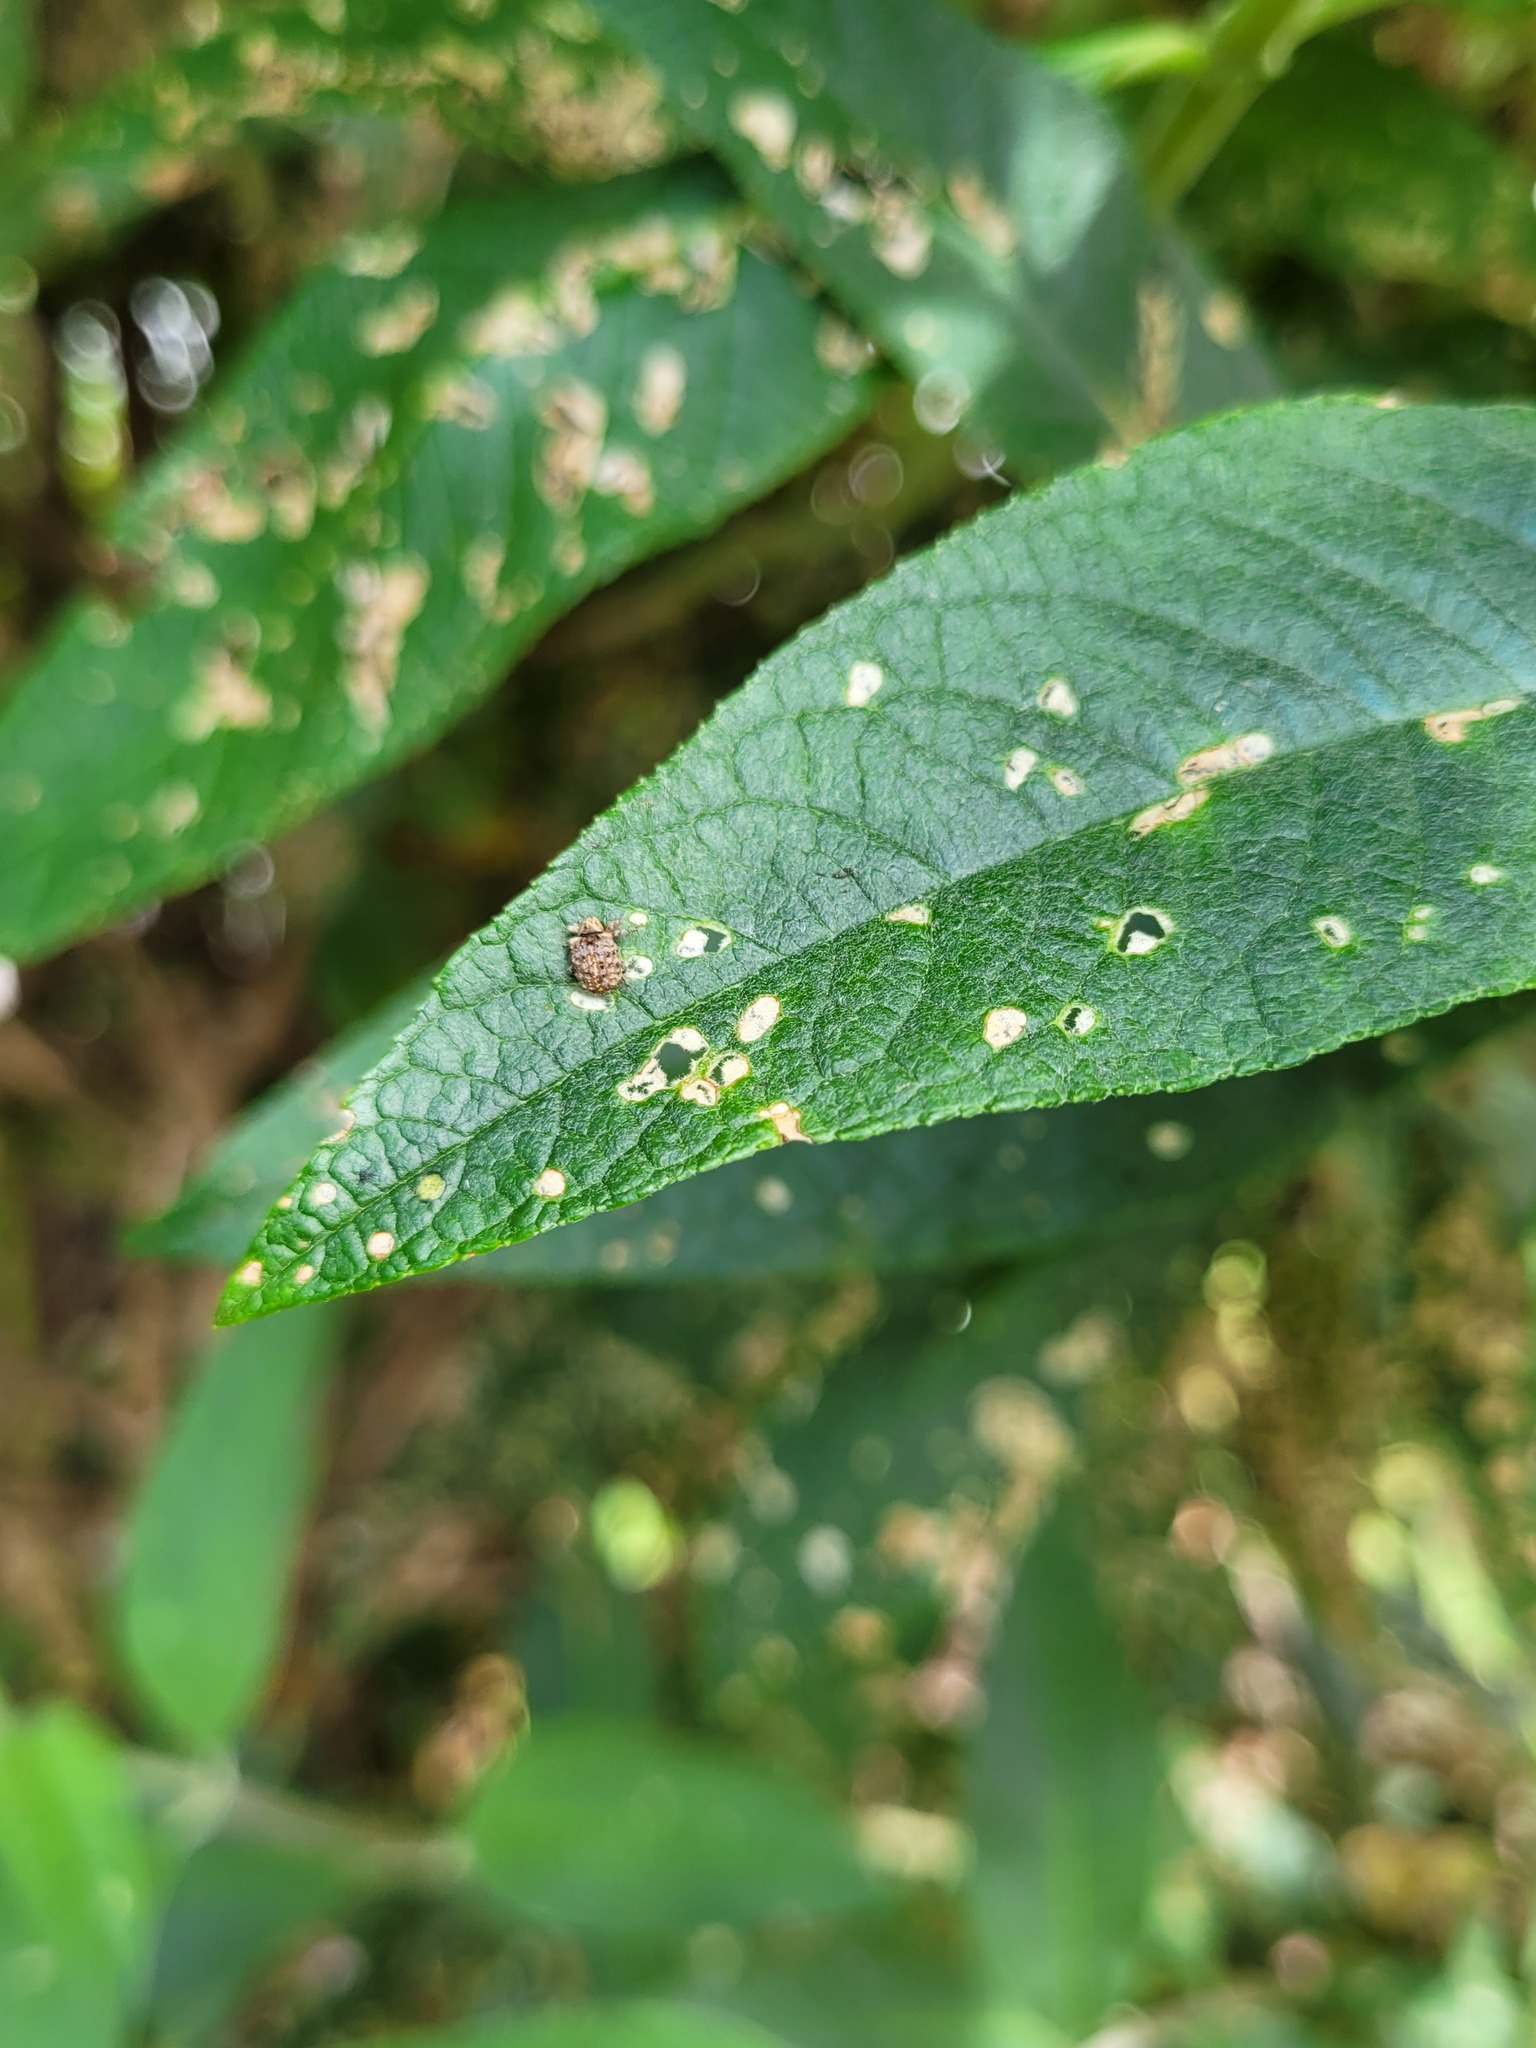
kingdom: Animalia
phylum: Arthropoda
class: Insecta
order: Coleoptera
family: Curculionidae
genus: Cleopus
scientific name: Cleopus japonicus
